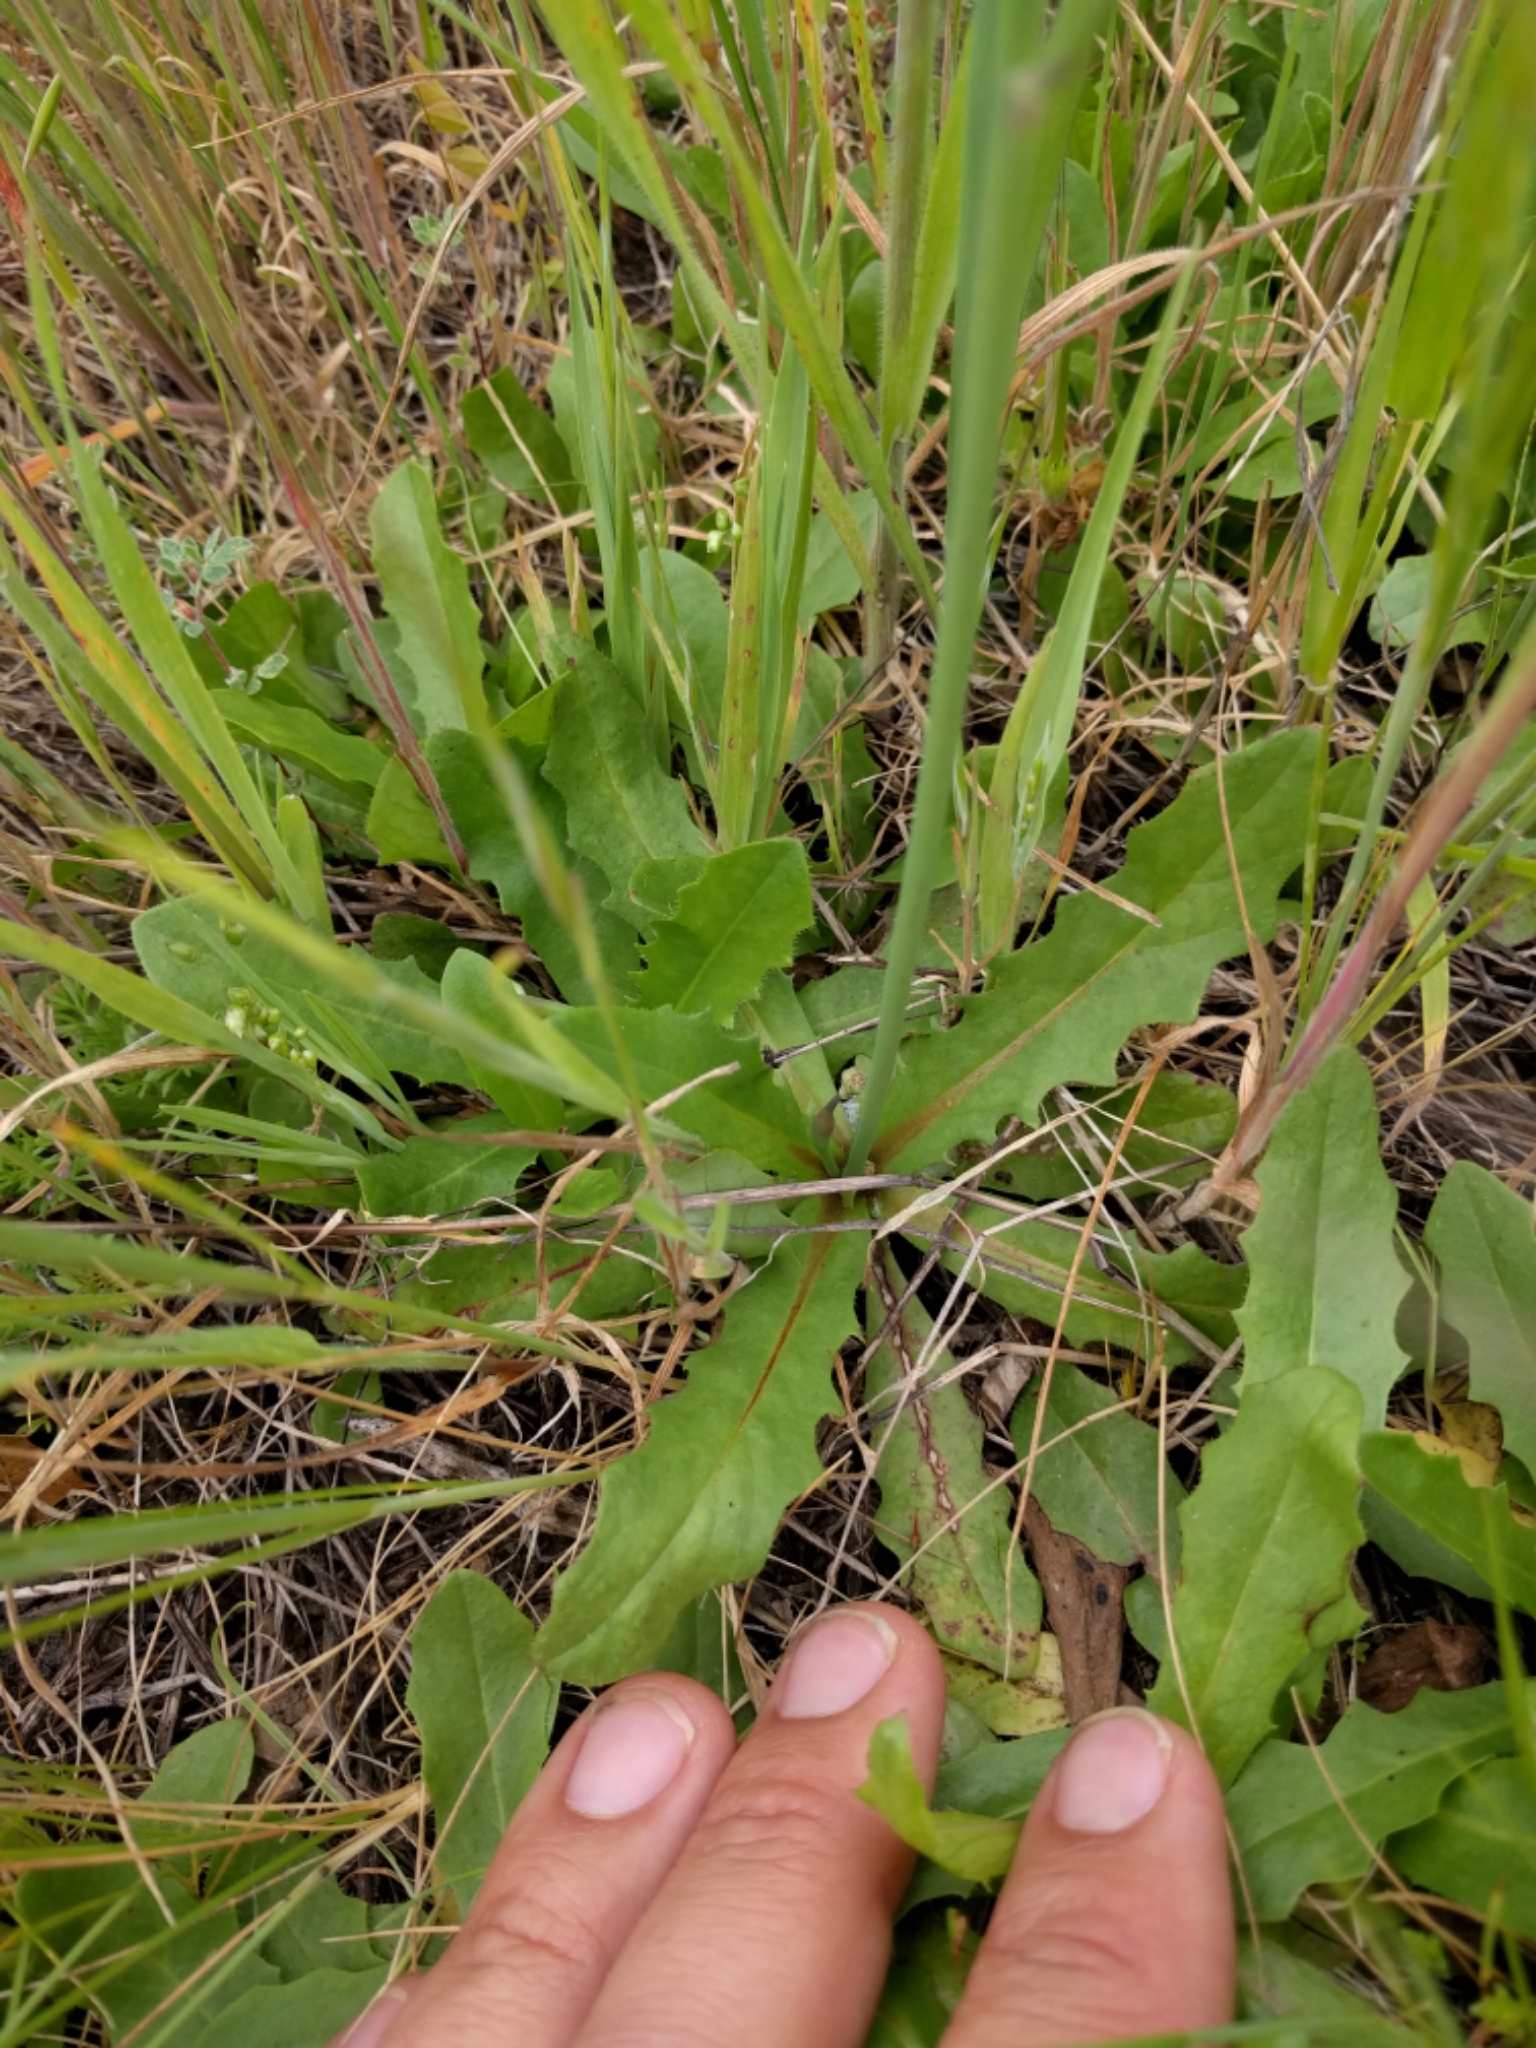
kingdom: Plantae
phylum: Tracheophyta
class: Magnoliopsida
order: Asterales
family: Asteraceae
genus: Hypochaeris
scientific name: Hypochaeris glabra
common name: Smooth catsear
